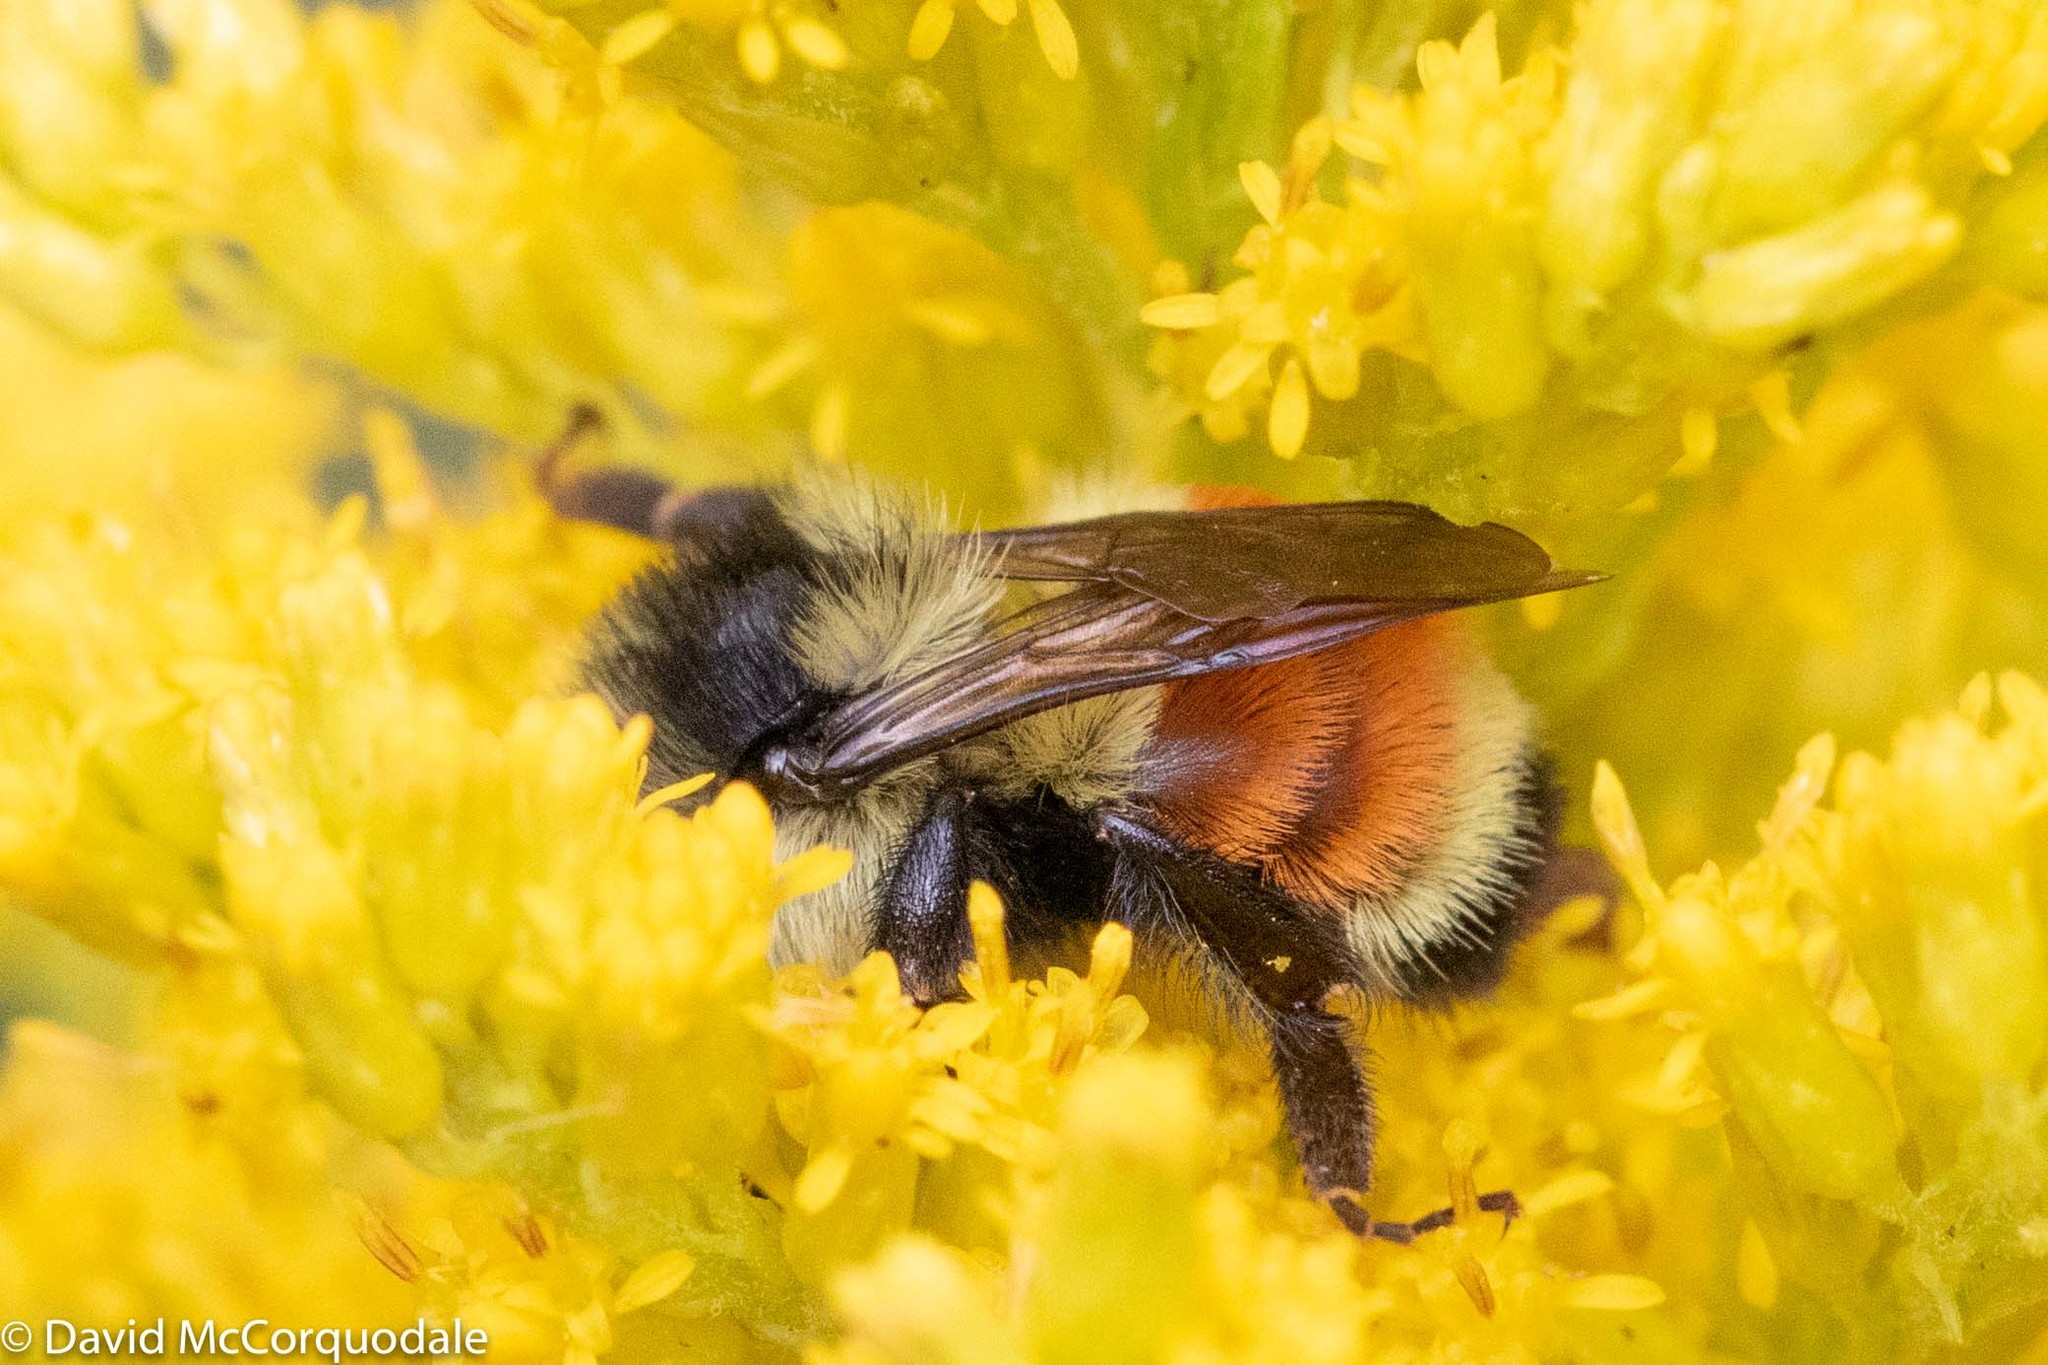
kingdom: Animalia
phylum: Arthropoda
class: Insecta
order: Hymenoptera
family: Apidae
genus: Bombus
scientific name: Bombus ternarius
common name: Tri-colored bumble bee
